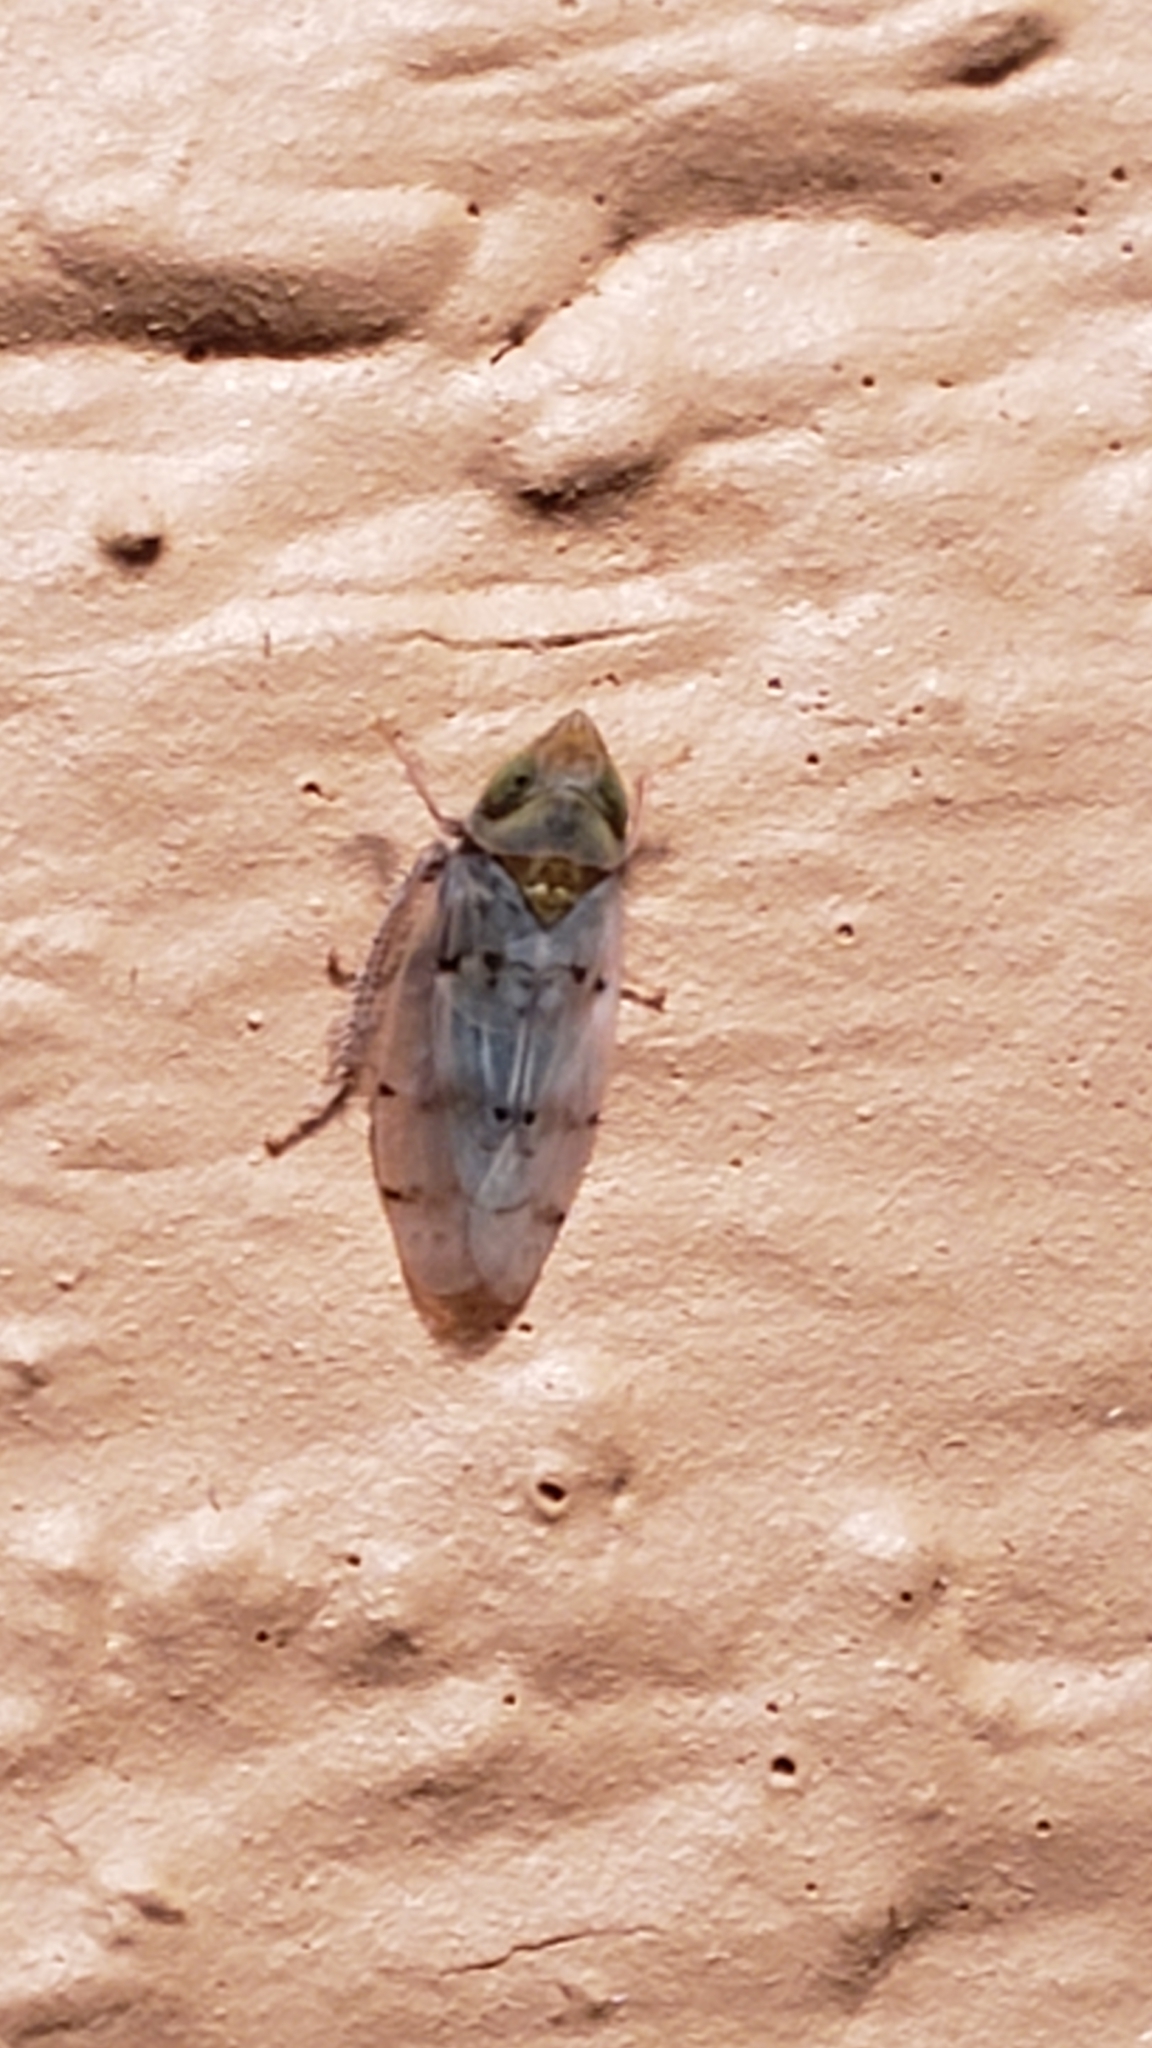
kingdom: Animalia
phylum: Arthropoda
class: Insecta
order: Hemiptera
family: Cicadellidae
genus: Japananus
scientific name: Japananus hyalinus
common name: The japanese maple leafhopper
